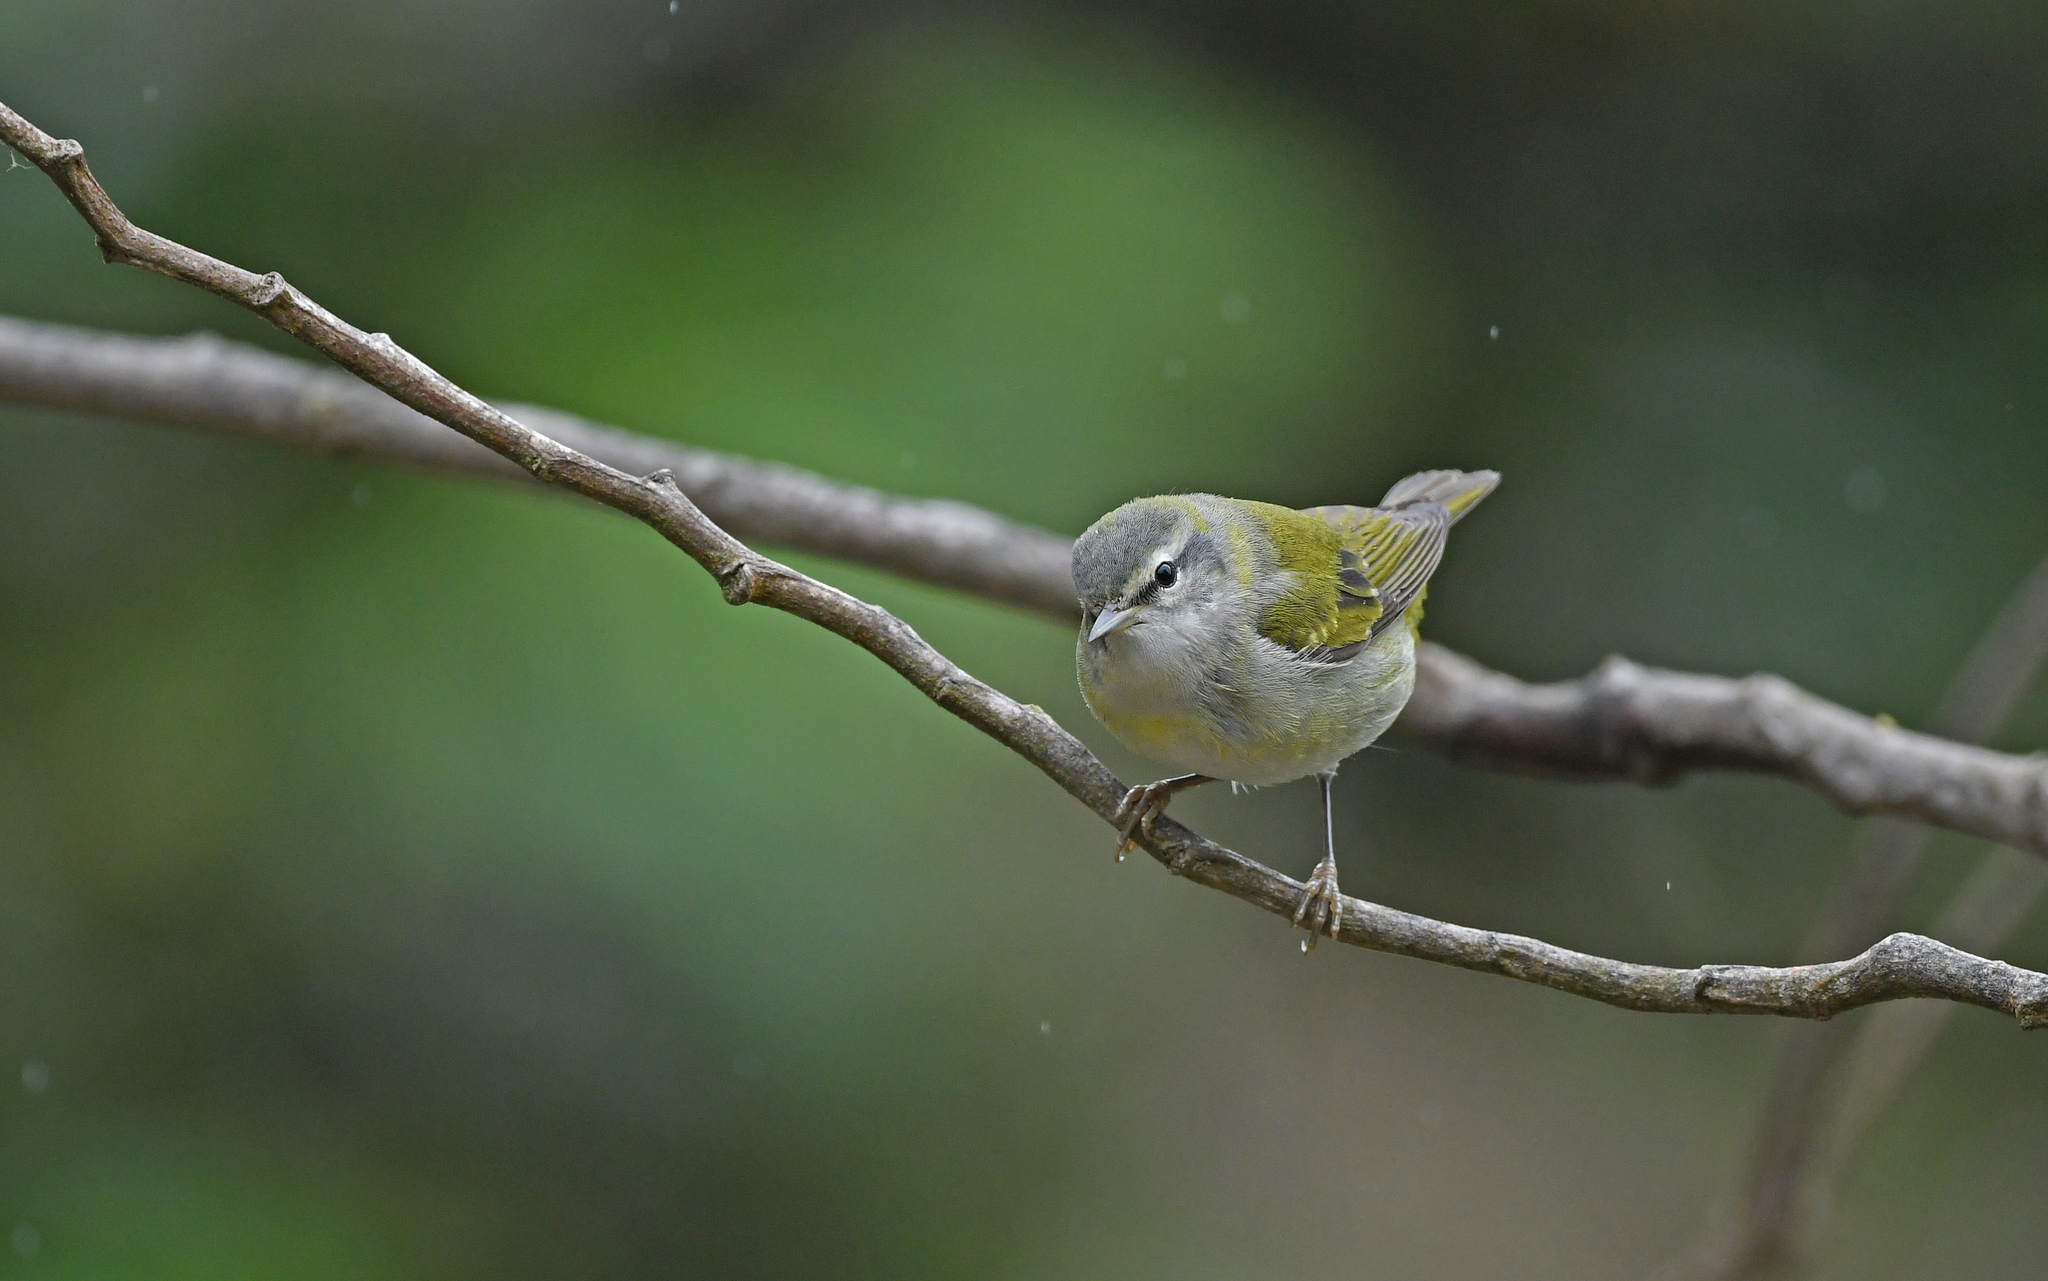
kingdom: Animalia
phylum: Chordata
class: Aves
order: Passeriformes
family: Parulidae
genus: Leiothlypis
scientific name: Leiothlypis peregrina
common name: Tennessee warbler
